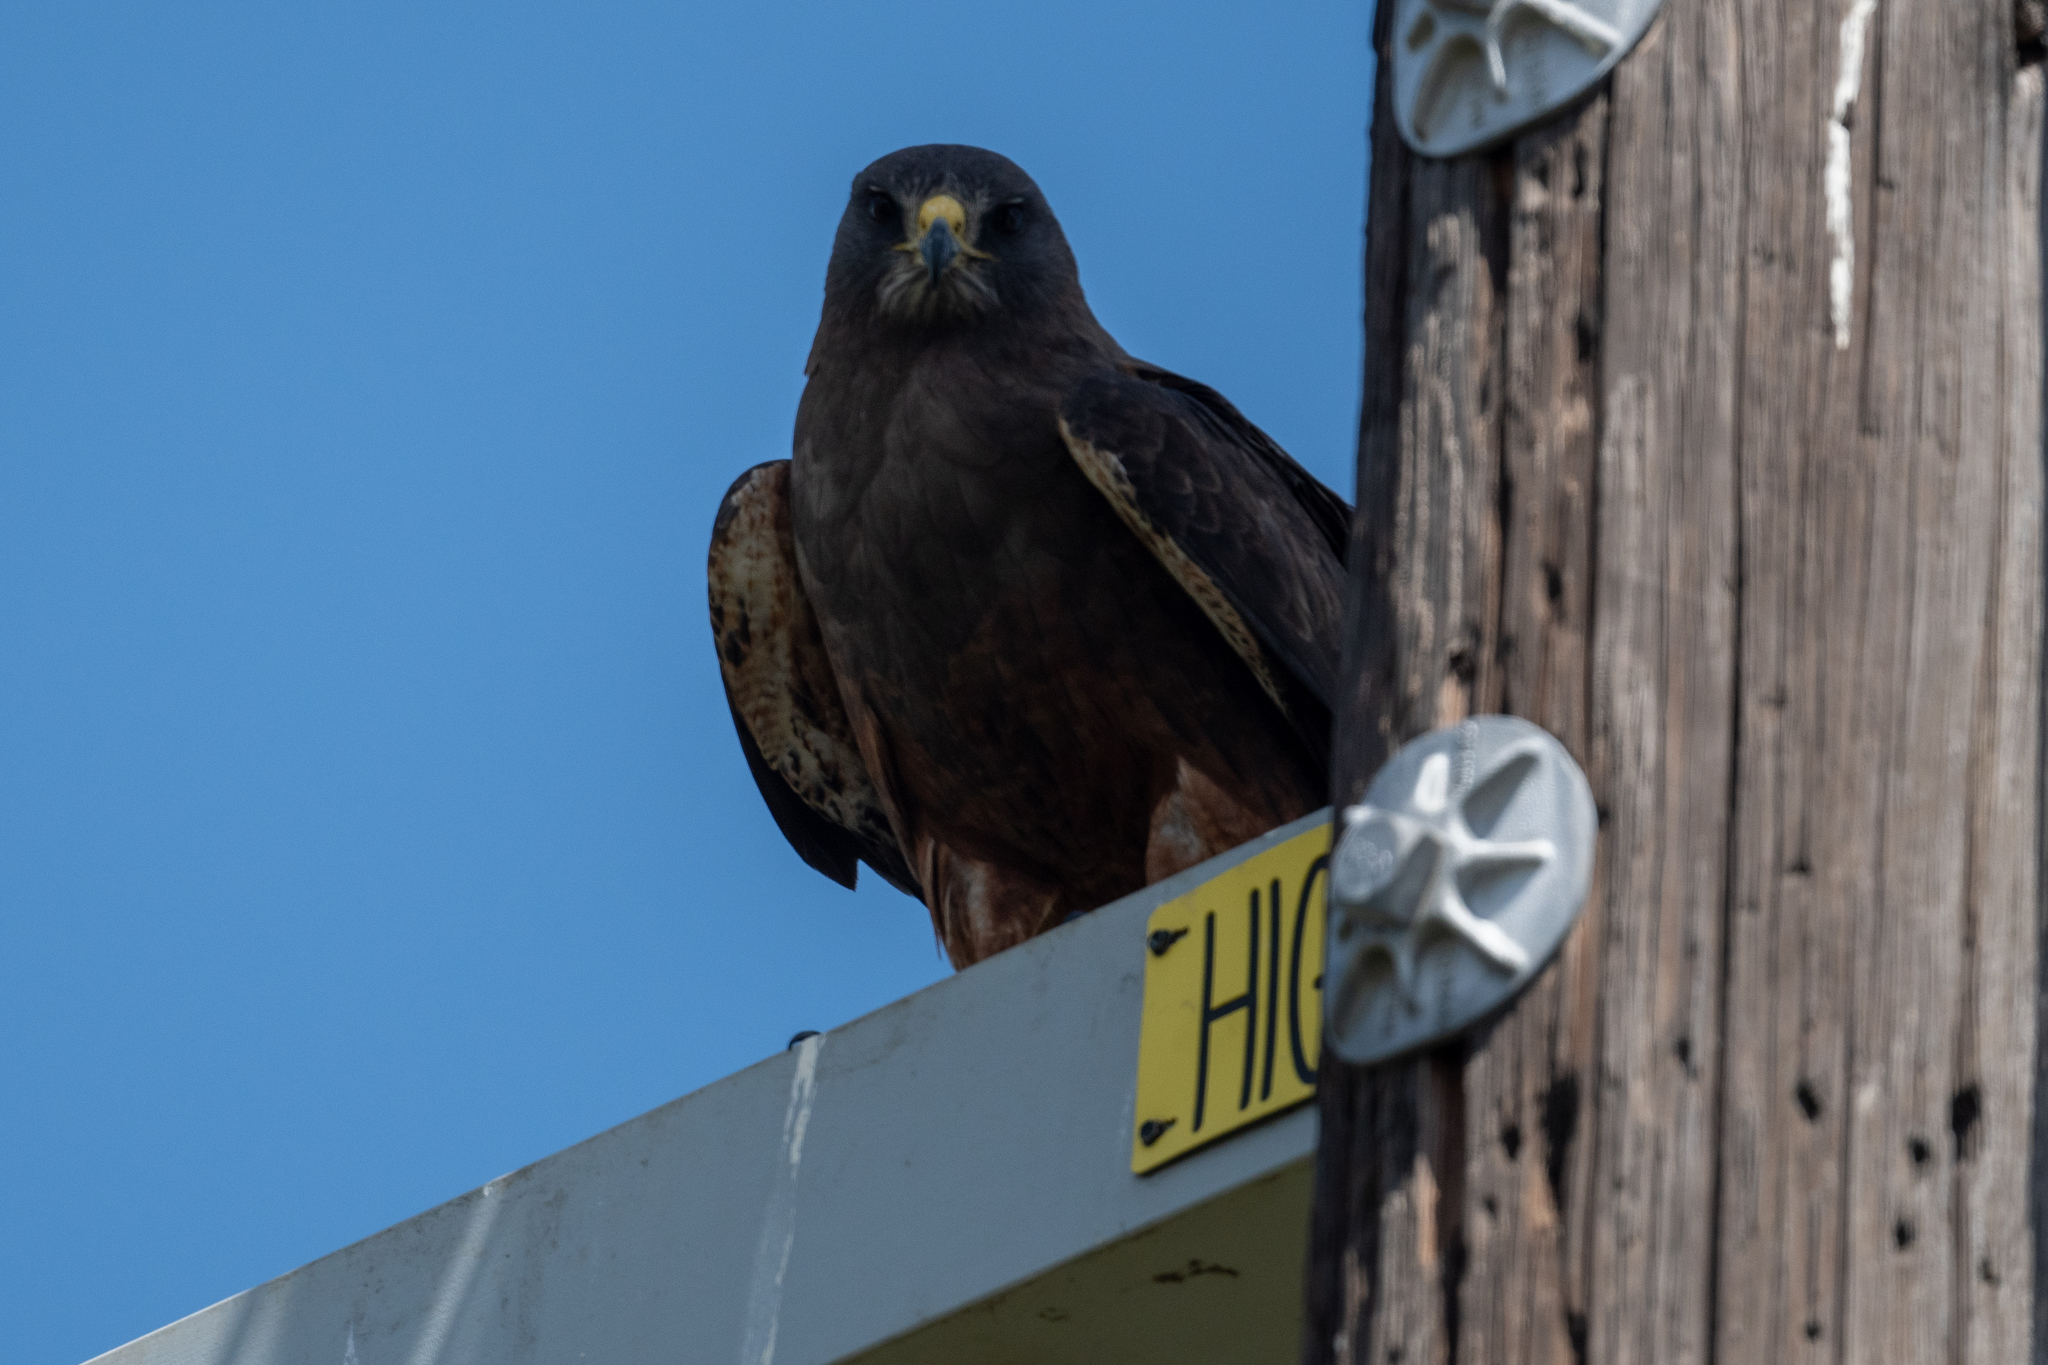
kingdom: Animalia
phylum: Chordata
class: Aves
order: Accipitriformes
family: Accipitridae
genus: Buteo
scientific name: Buteo swainsoni
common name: Swainson's hawk
